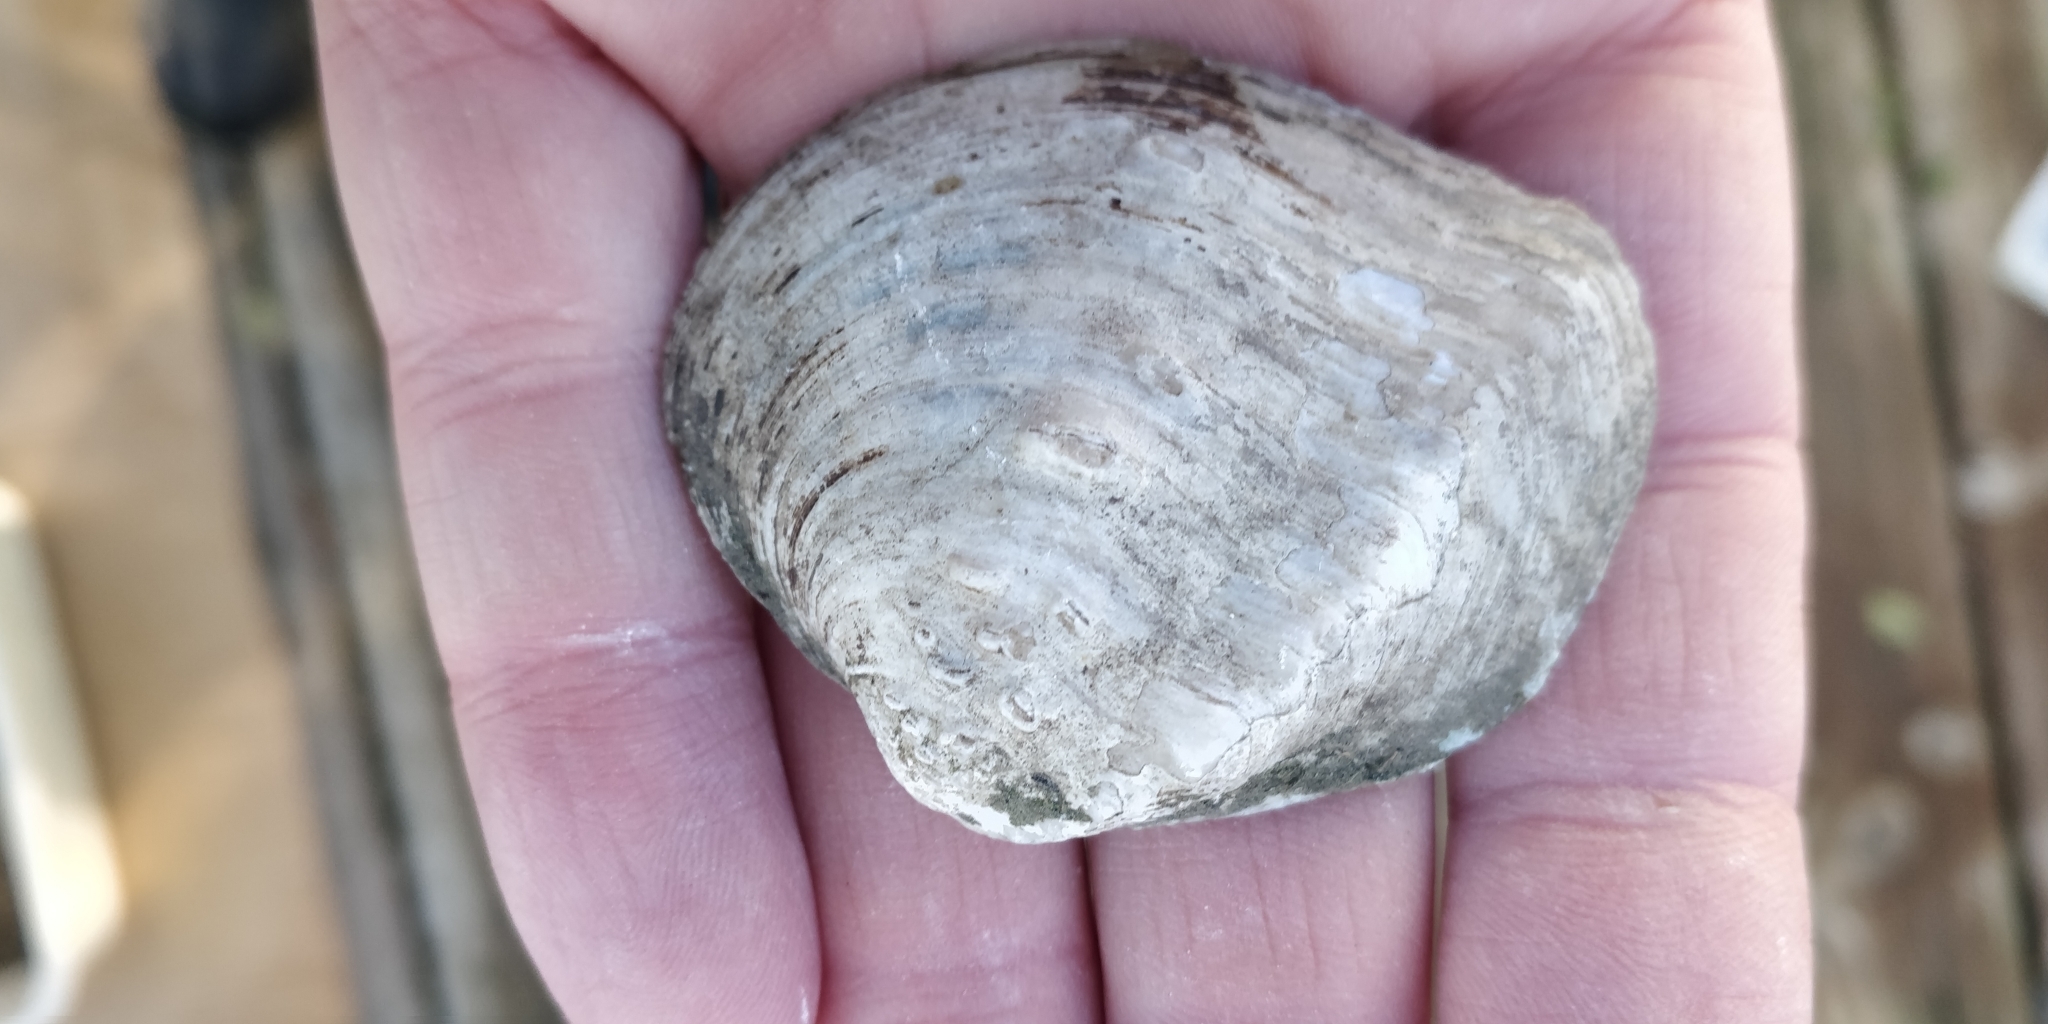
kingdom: Animalia
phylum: Mollusca
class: Bivalvia
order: Unionida
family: Unionidae
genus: Quadrula
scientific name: Quadrula quadrula
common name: Mapleleaf
